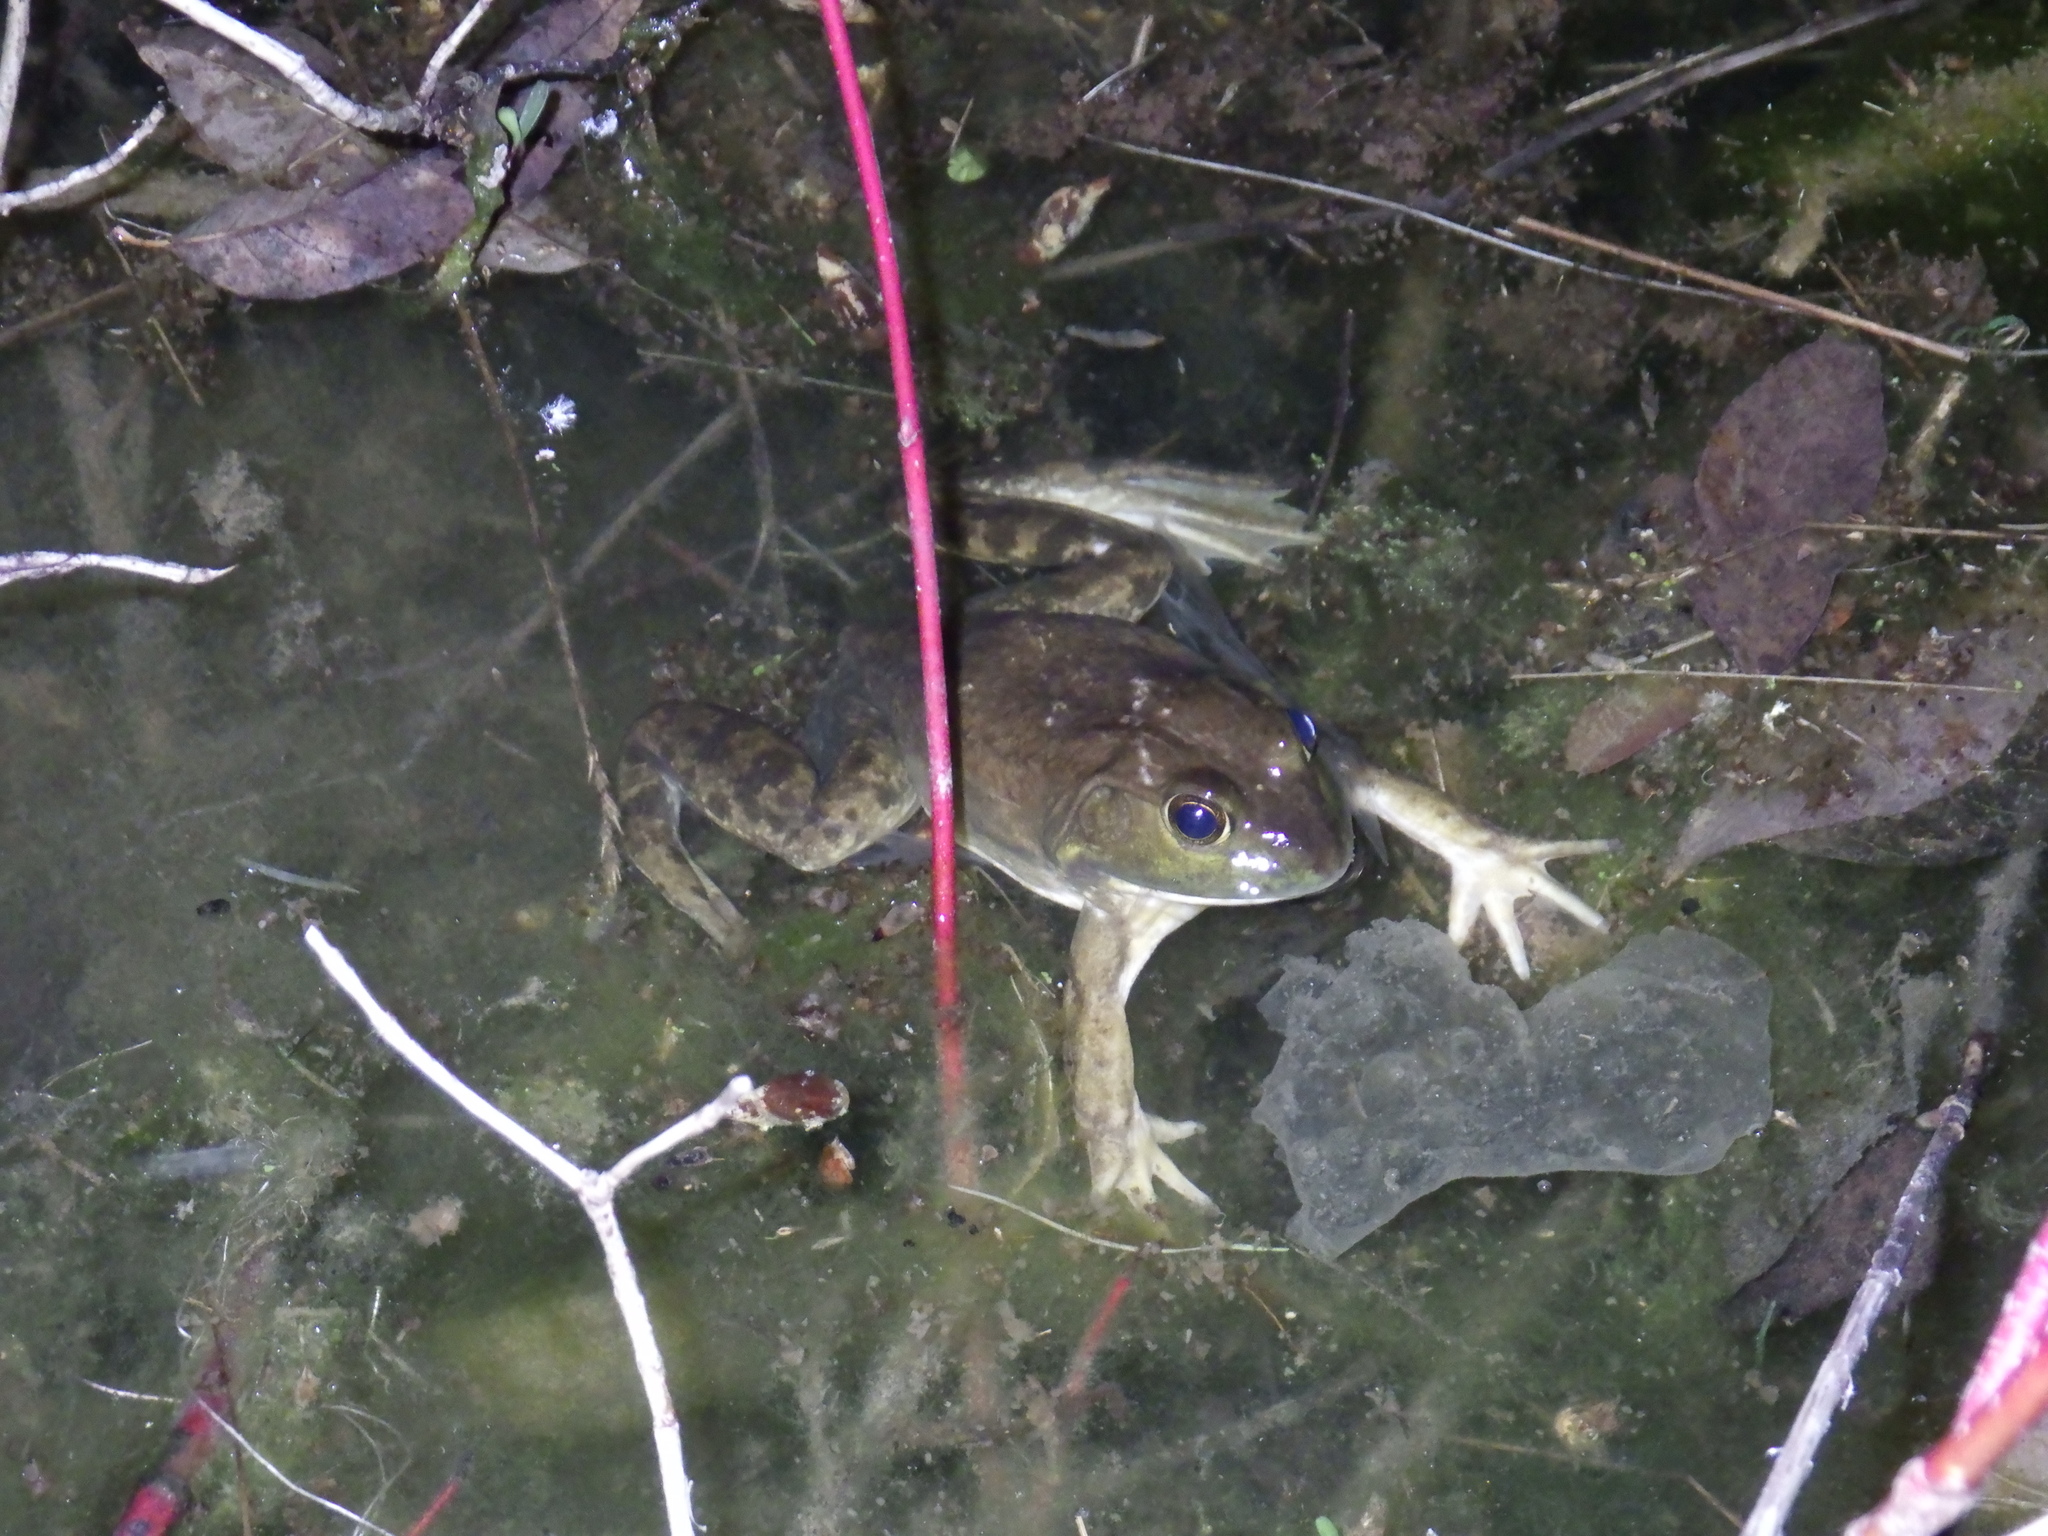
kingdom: Animalia
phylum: Chordata
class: Amphibia
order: Anura
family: Ranidae
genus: Lithobates
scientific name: Lithobates catesbeianus
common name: American bullfrog
